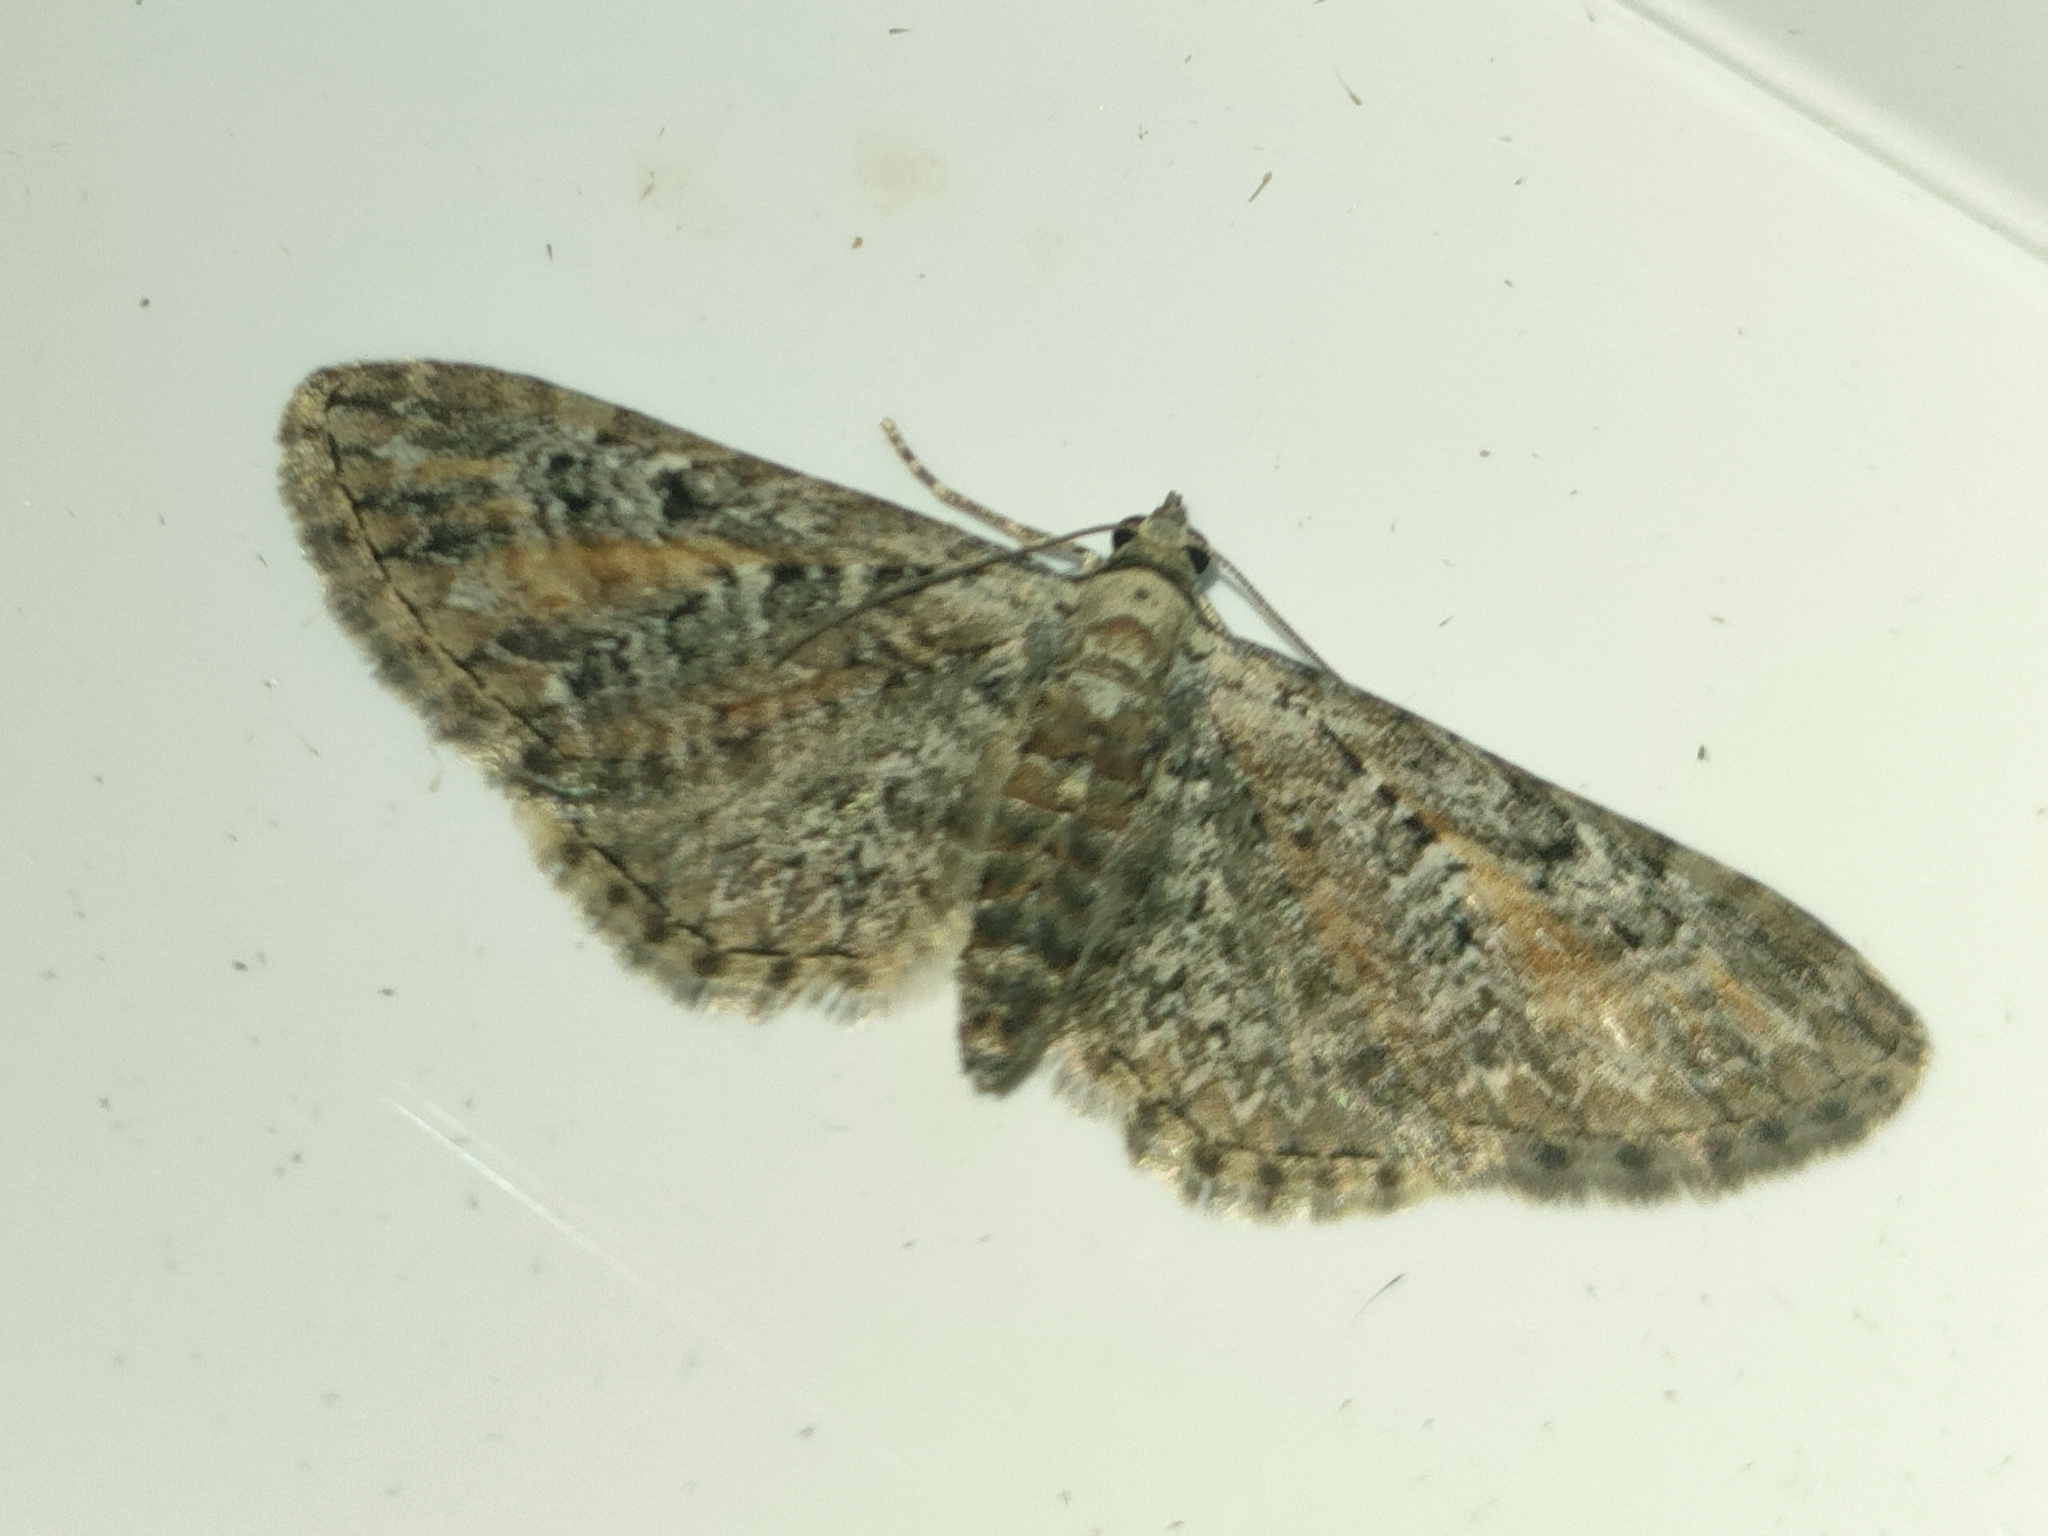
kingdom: Animalia
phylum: Arthropoda
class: Insecta
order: Lepidoptera
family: Geometridae
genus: Eupithecia
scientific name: Eupithecia icterata
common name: Tawny speckled pug
